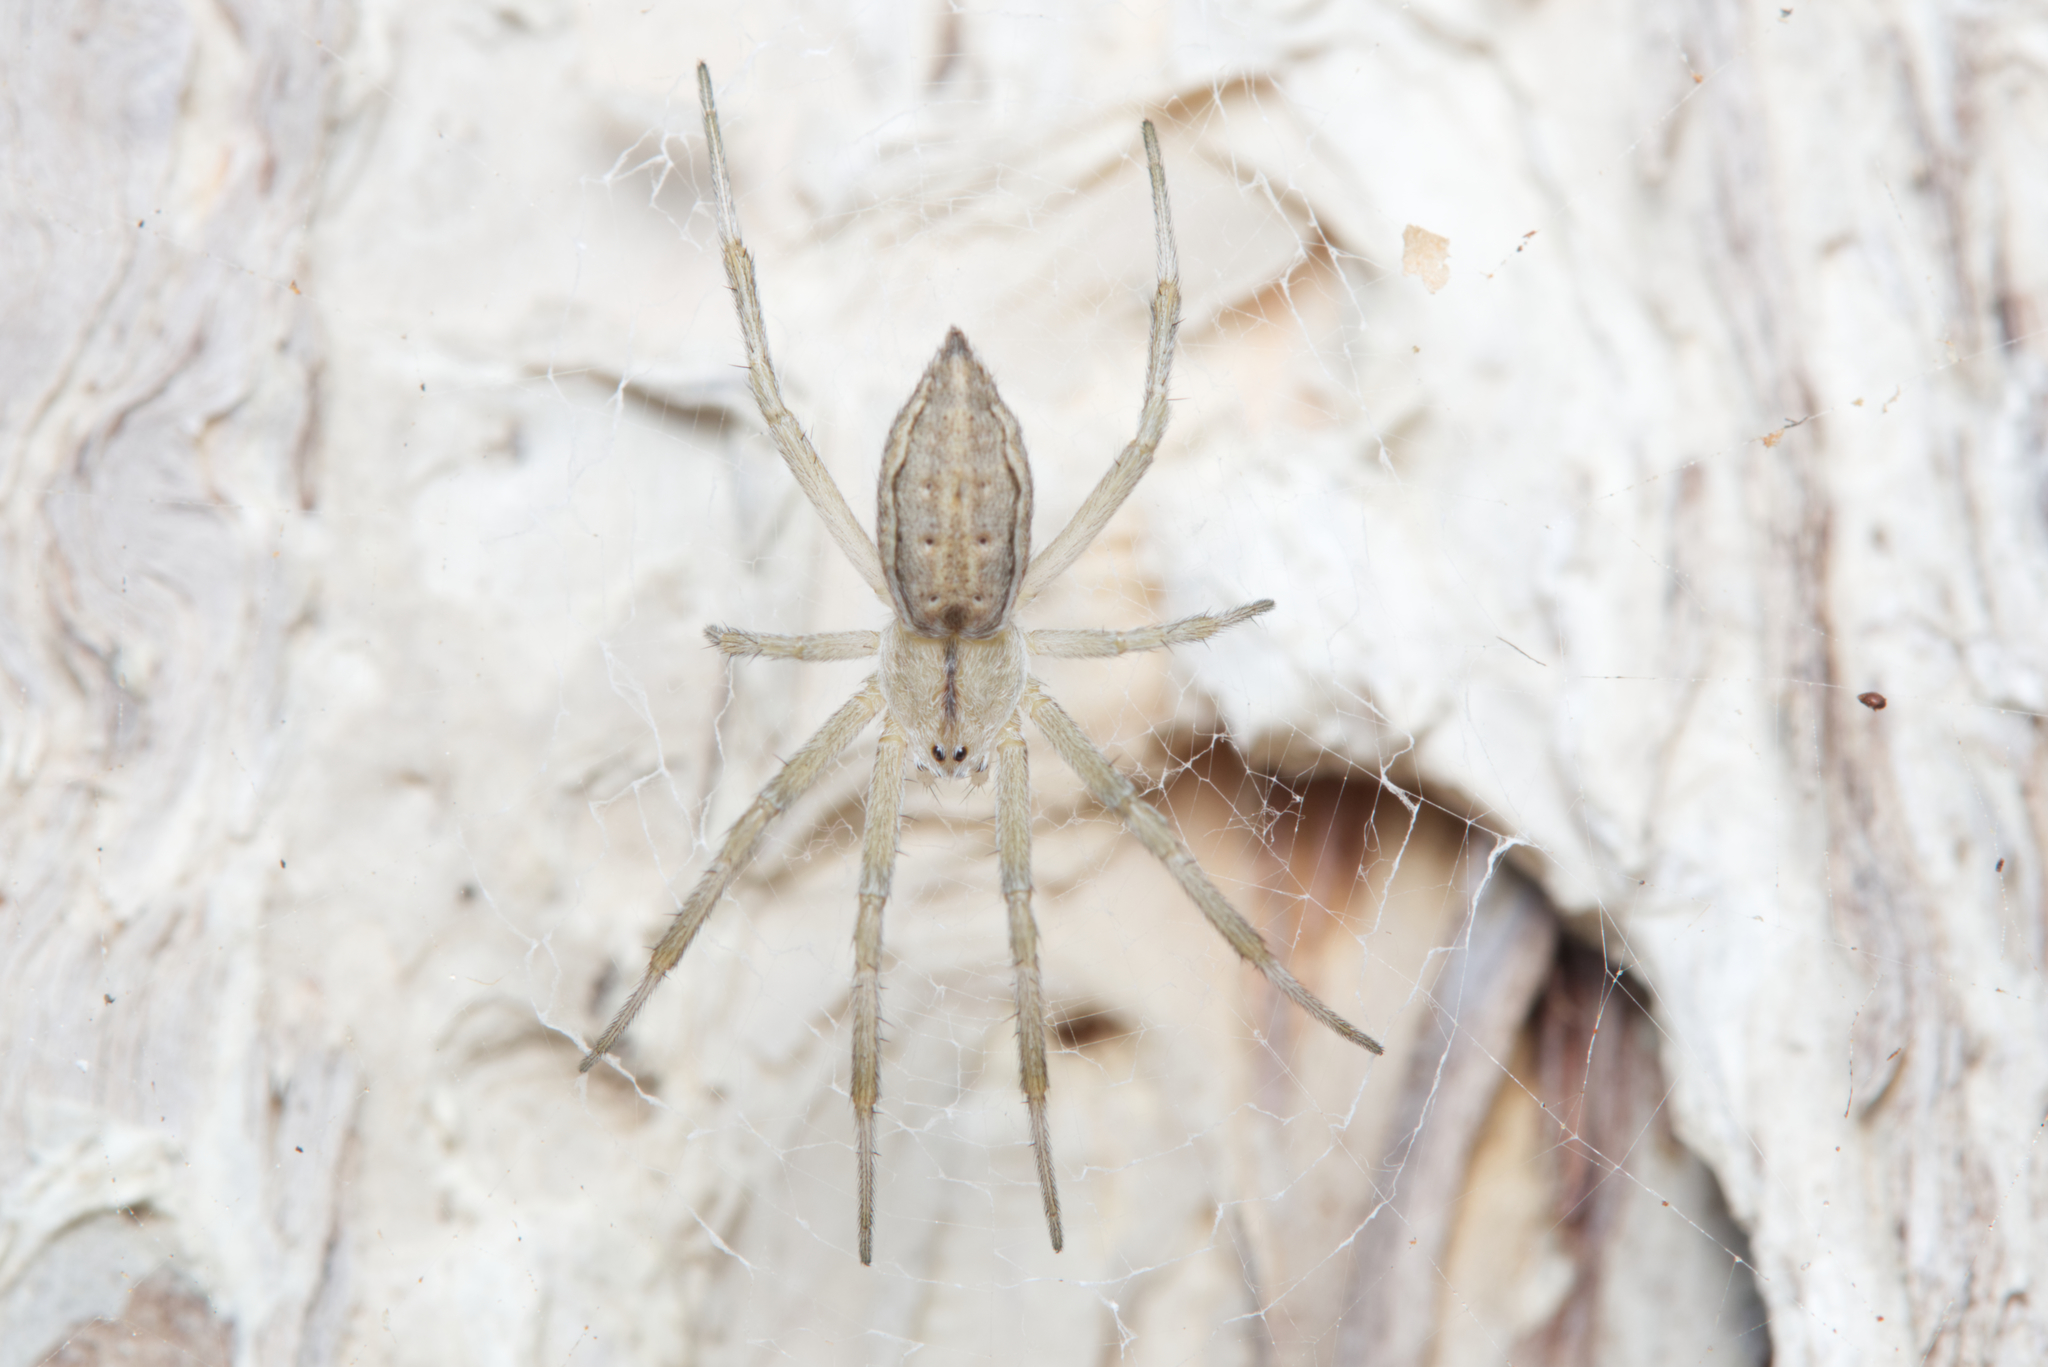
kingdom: Animalia
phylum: Arthropoda
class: Arachnida
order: Araneae
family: Araneidae
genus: Argiope
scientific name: Argiope ocyaloides
